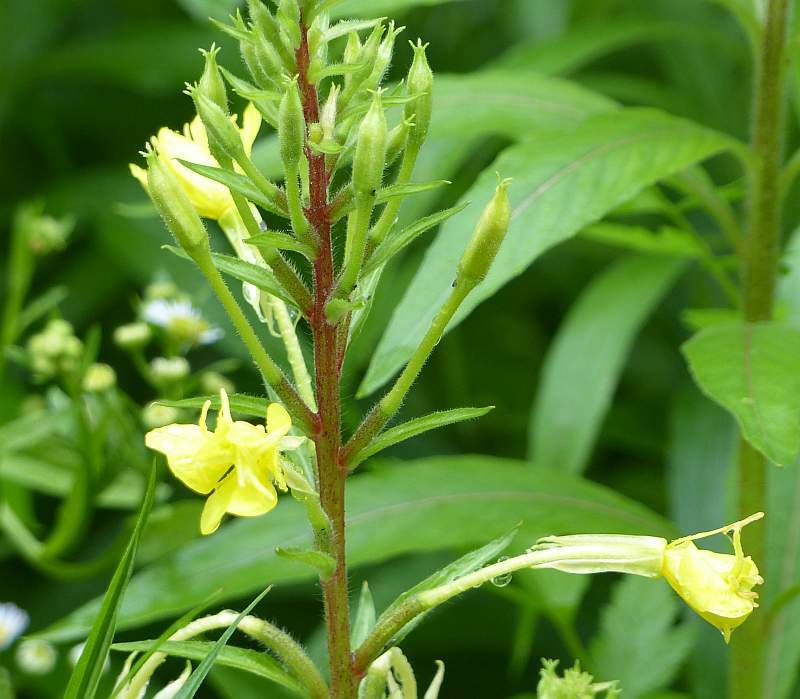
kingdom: Plantae
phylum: Tracheophyta
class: Magnoliopsida
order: Myrtales
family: Onagraceae
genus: Oenothera
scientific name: Oenothera biennis
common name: Common evening-primrose
